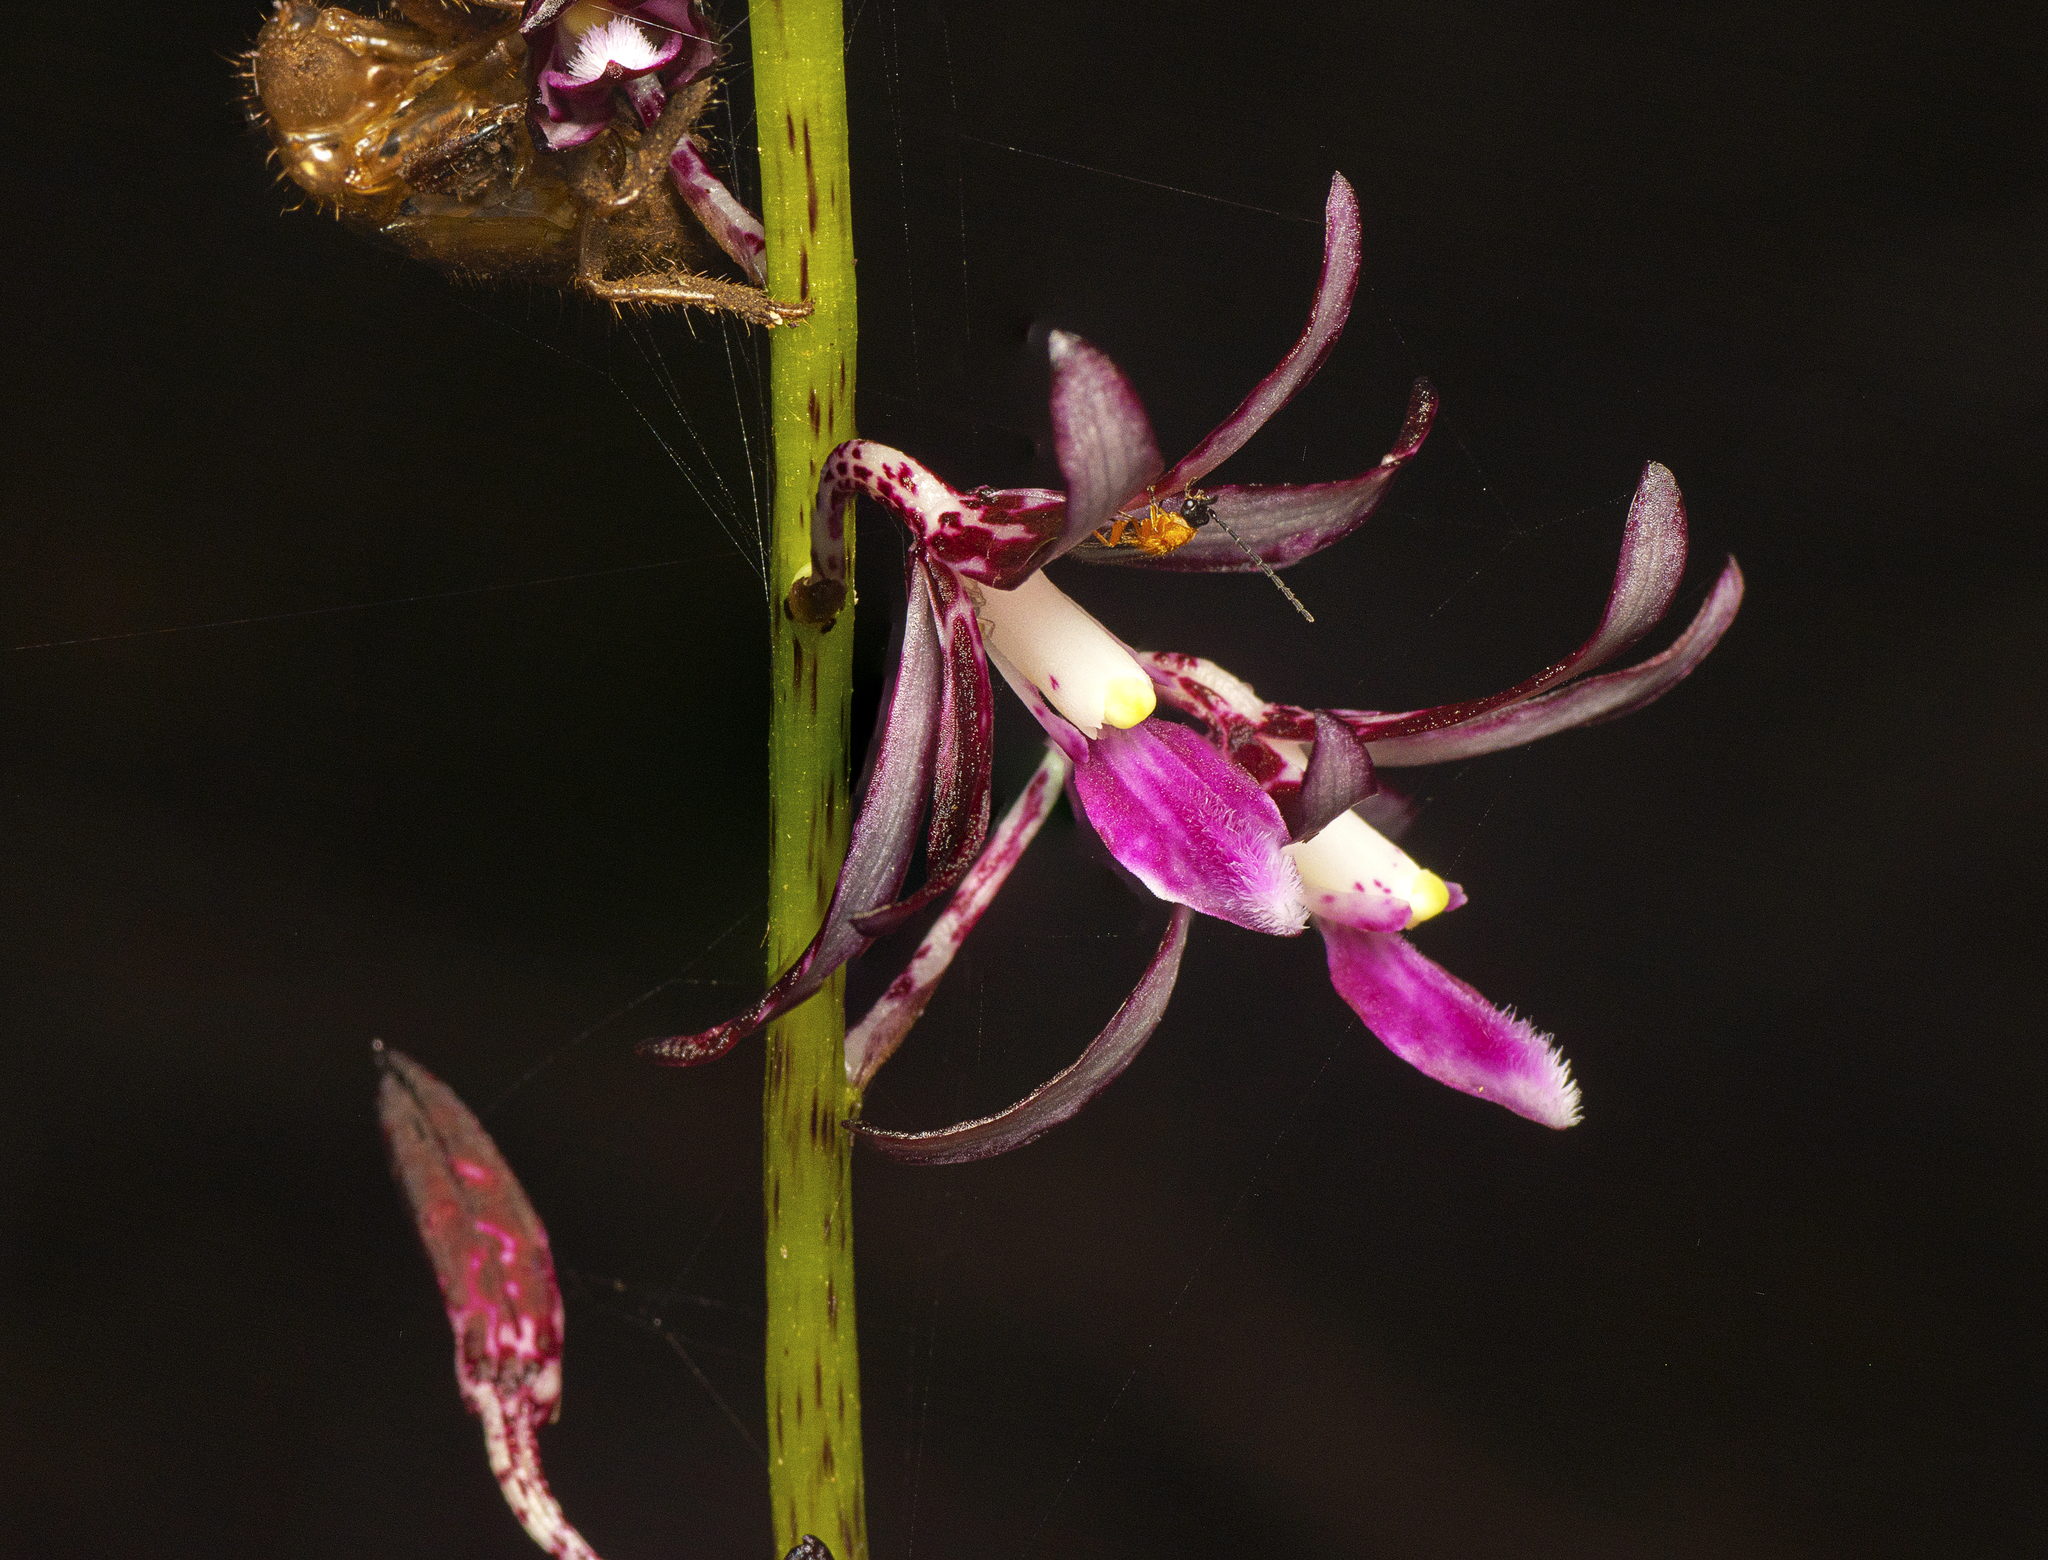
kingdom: Plantae
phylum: Tracheophyta
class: Liliopsida
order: Asparagales
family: Orchidaceae
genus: Dipodium
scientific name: Dipodium variegatum
